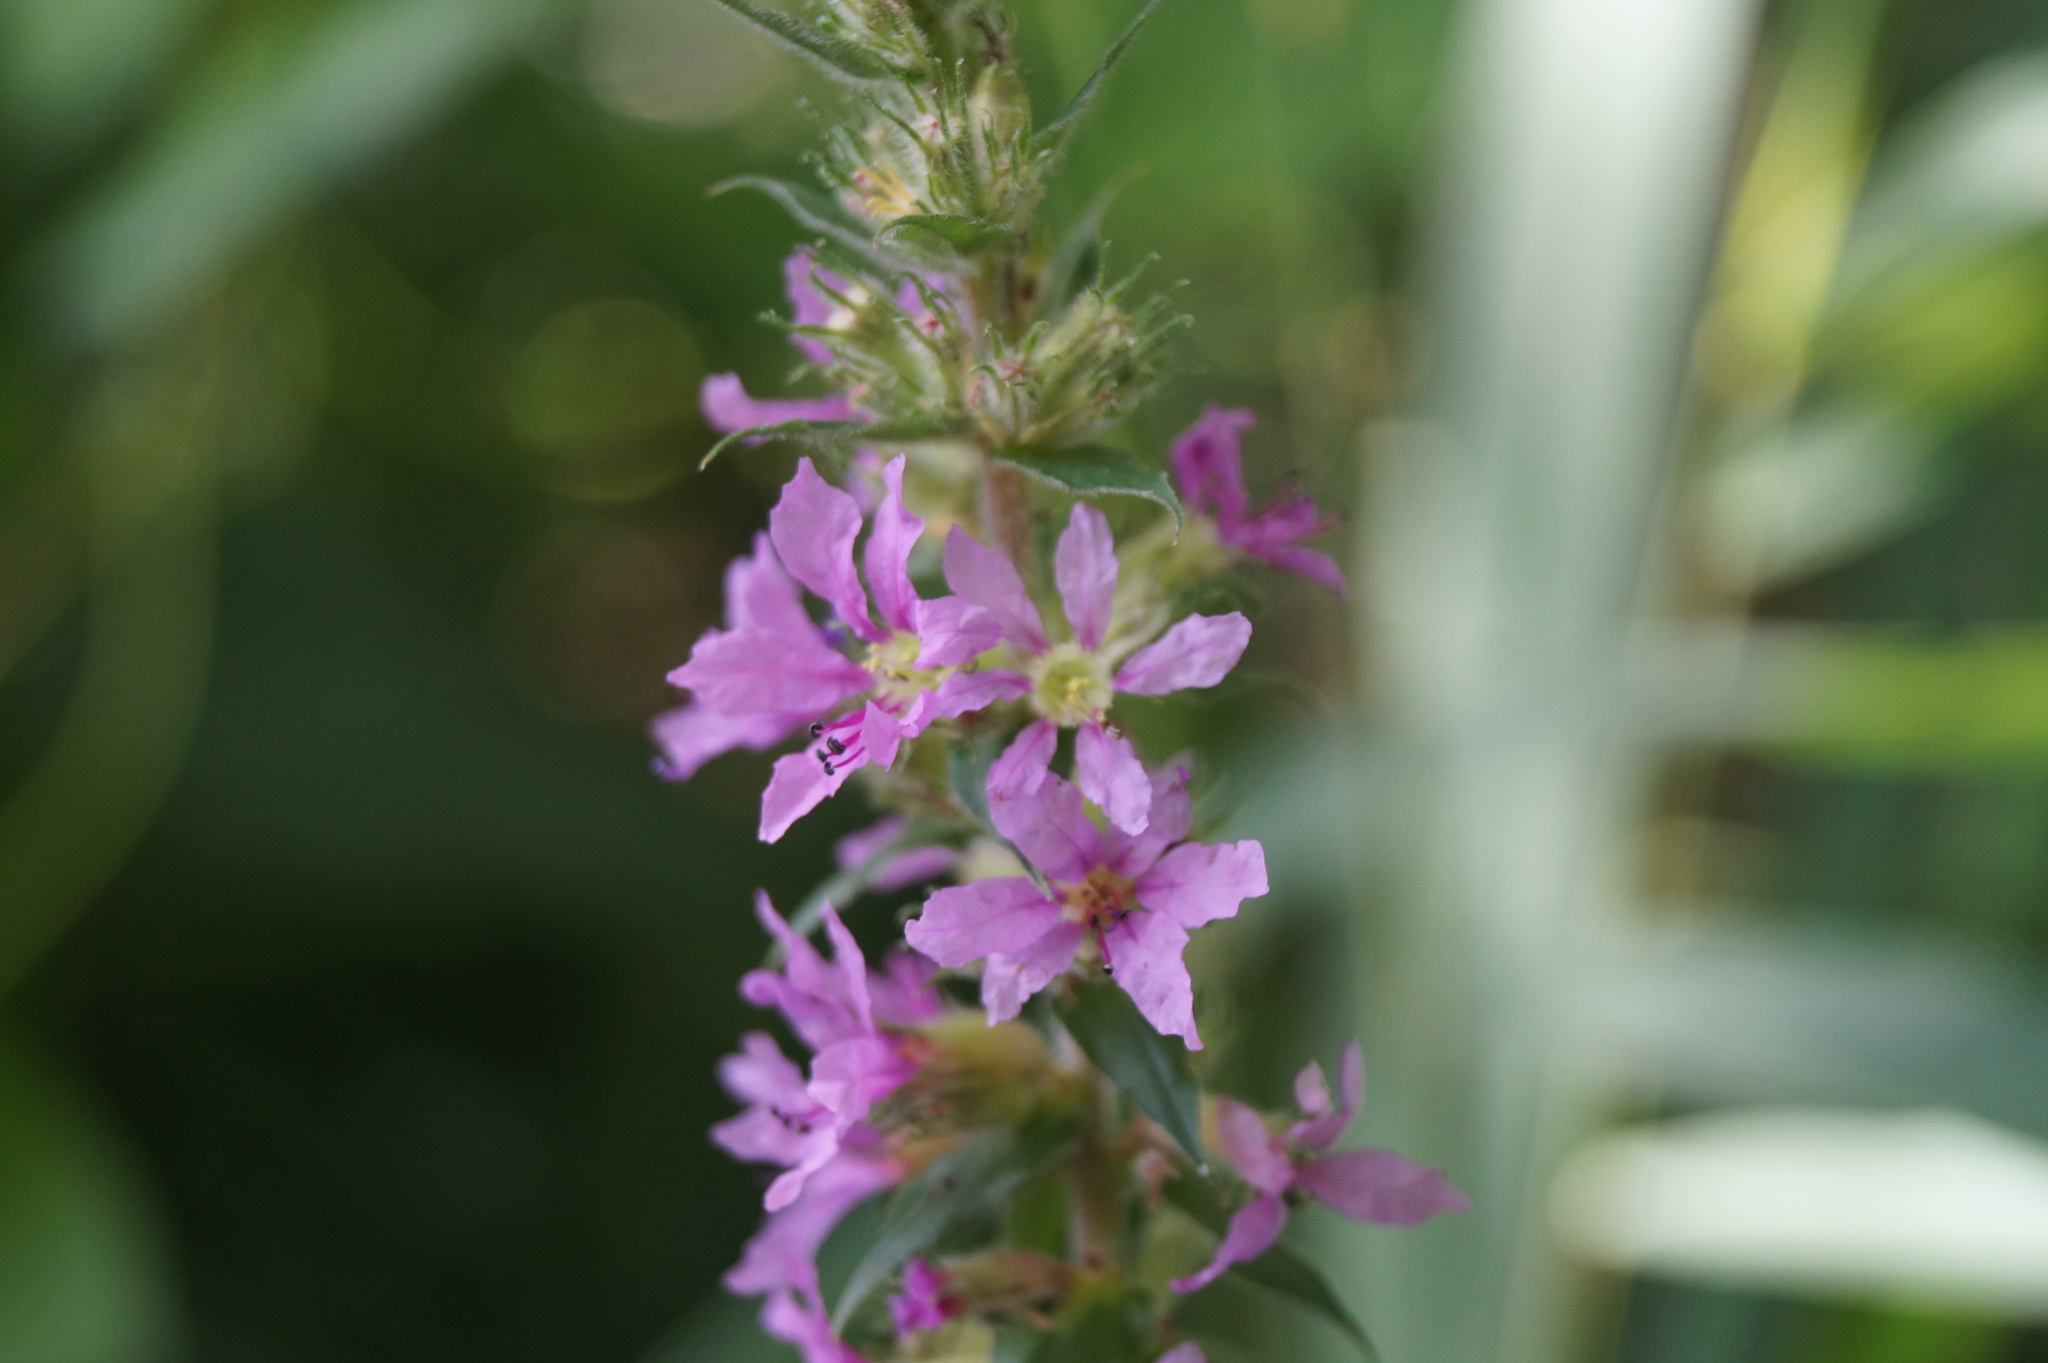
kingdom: Plantae
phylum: Tracheophyta
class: Magnoliopsida
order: Myrtales
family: Lythraceae
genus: Lythrum
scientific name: Lythrum salicaria
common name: Purple loosestrife
